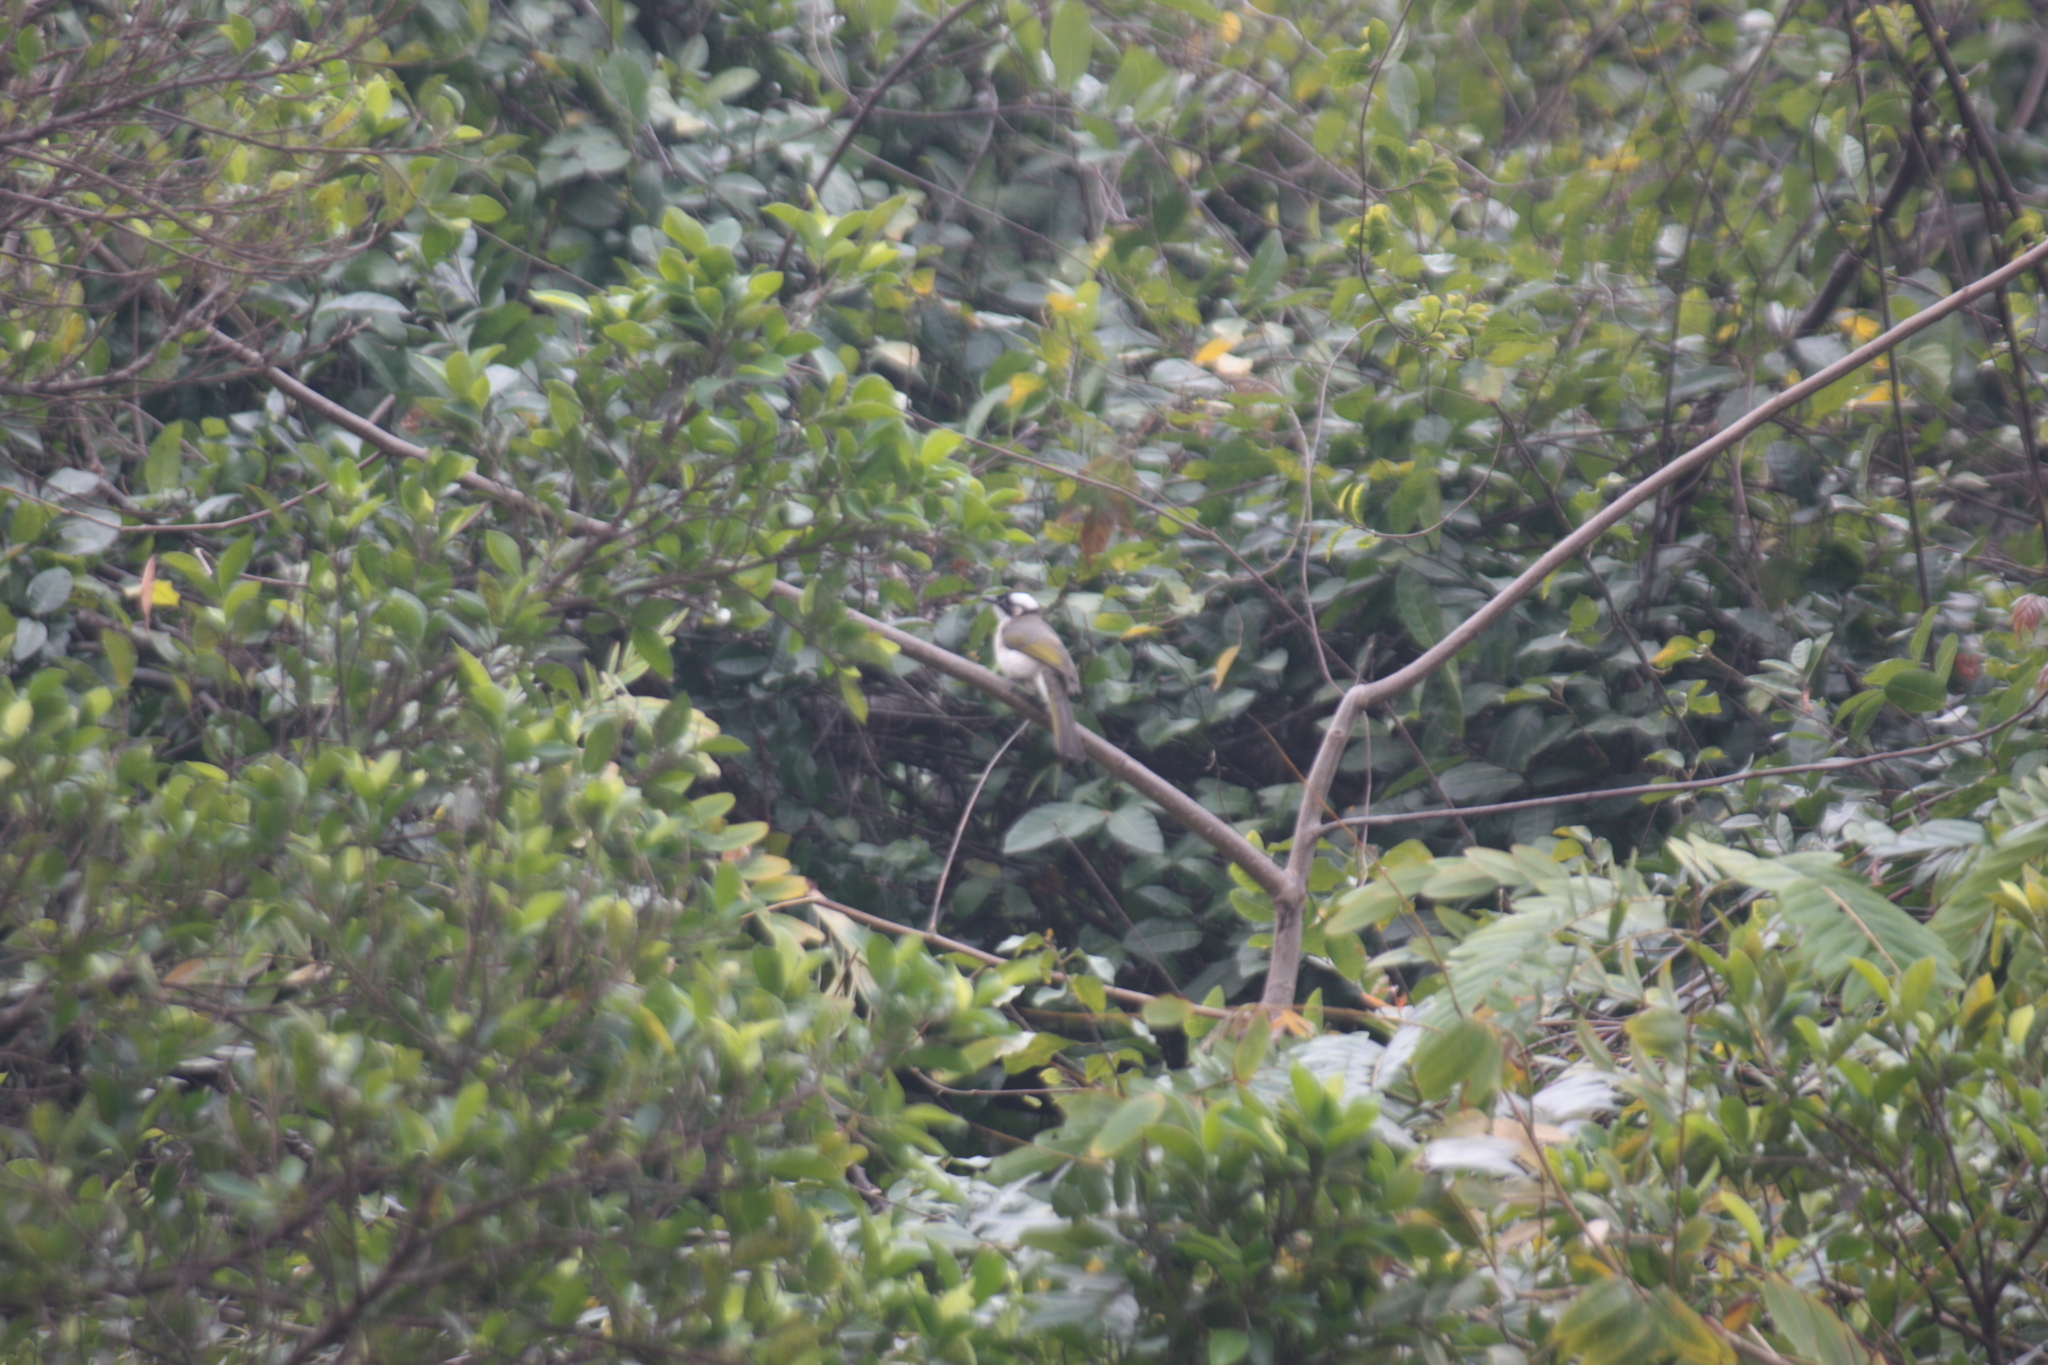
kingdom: Animalia
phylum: Chordata
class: Aves
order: Passeriformes
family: Pycnonotidae
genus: Pycnonotus
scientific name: Pycnonotus sinensis
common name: Light-vented bulbul
